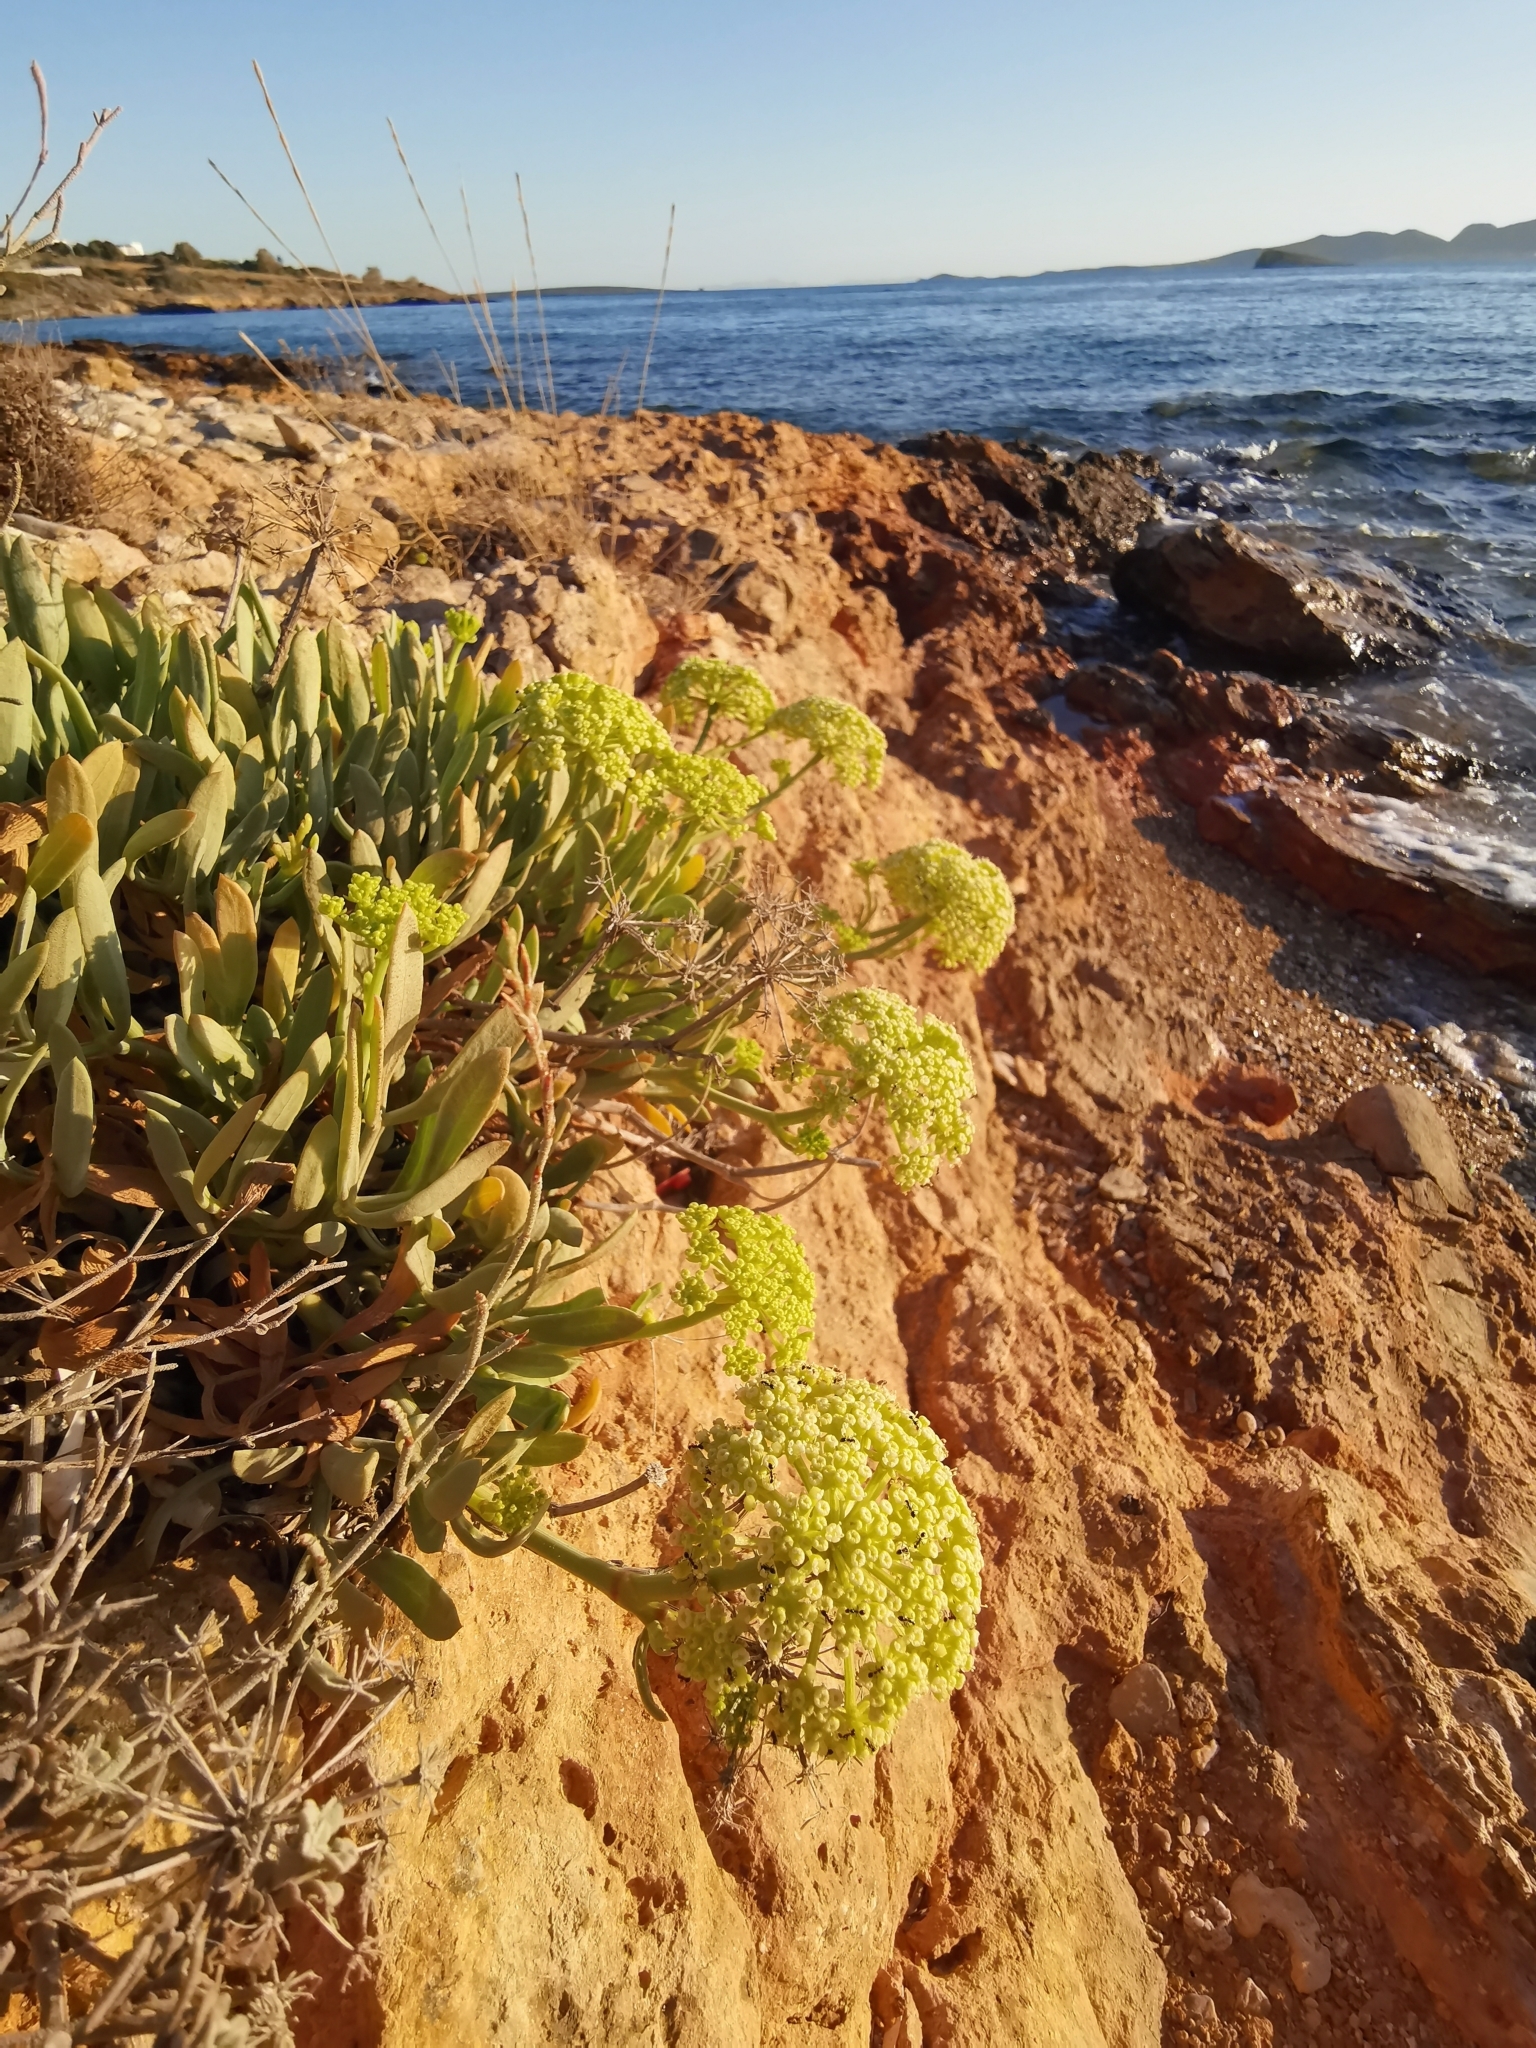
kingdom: Plantae
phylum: Tracheophyta
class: Magnoliopsida
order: Apiales
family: Apiaceae
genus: Crithmum
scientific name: Crithmum maritimum
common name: Rock samphire
